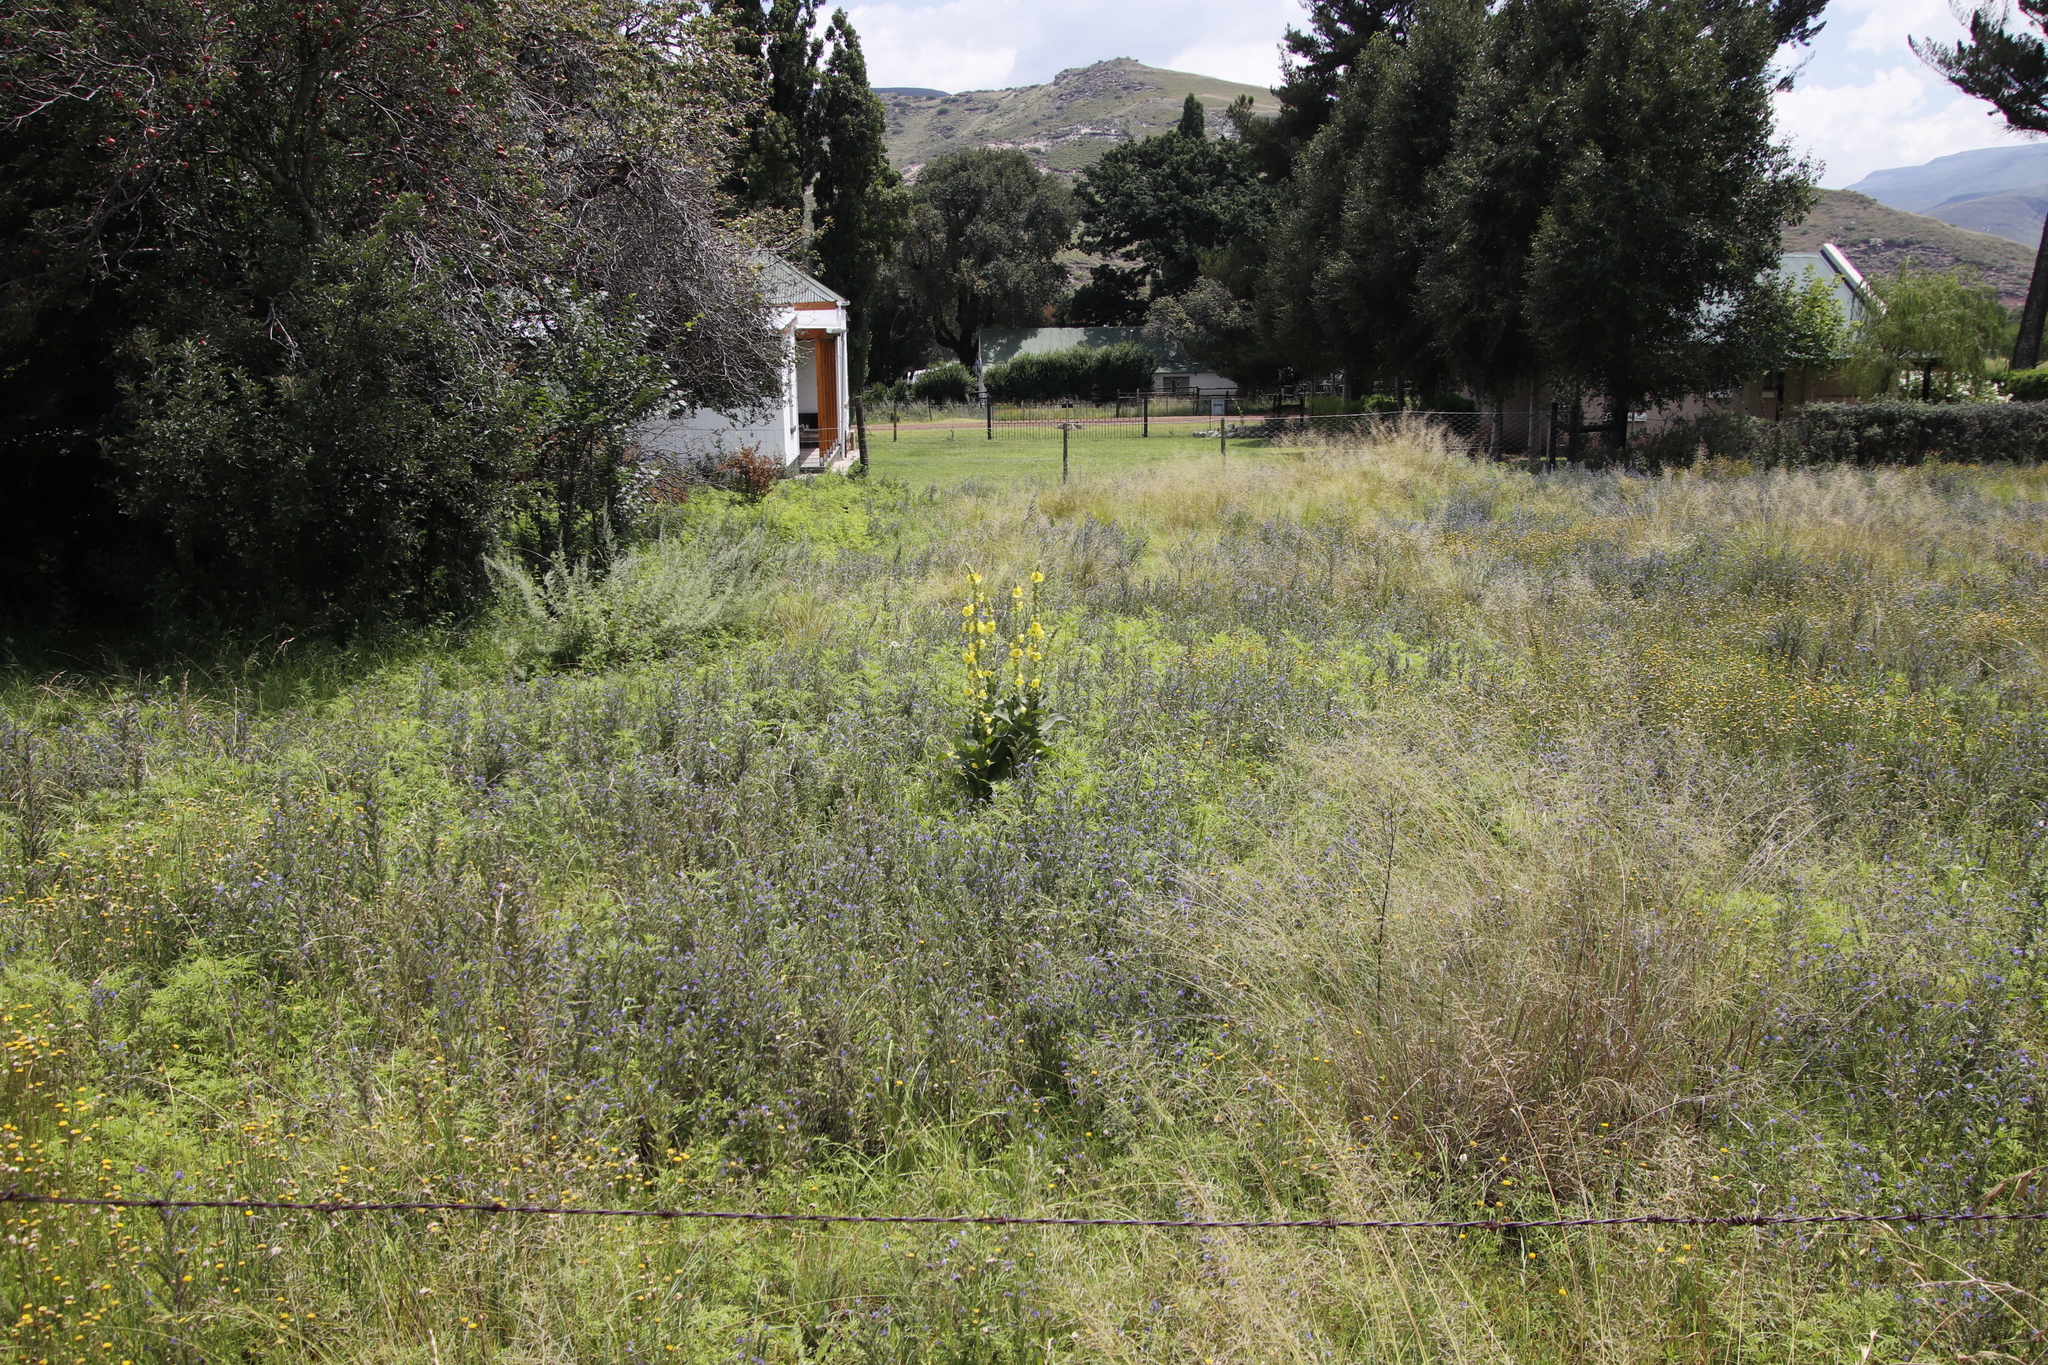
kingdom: Plantae
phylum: Tracheophyta
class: Magnoliopsida
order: Lamiales
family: Scrophulariaceae
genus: Verbascum
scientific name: Verbascum densiflorum
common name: Dense-flowered mullein
